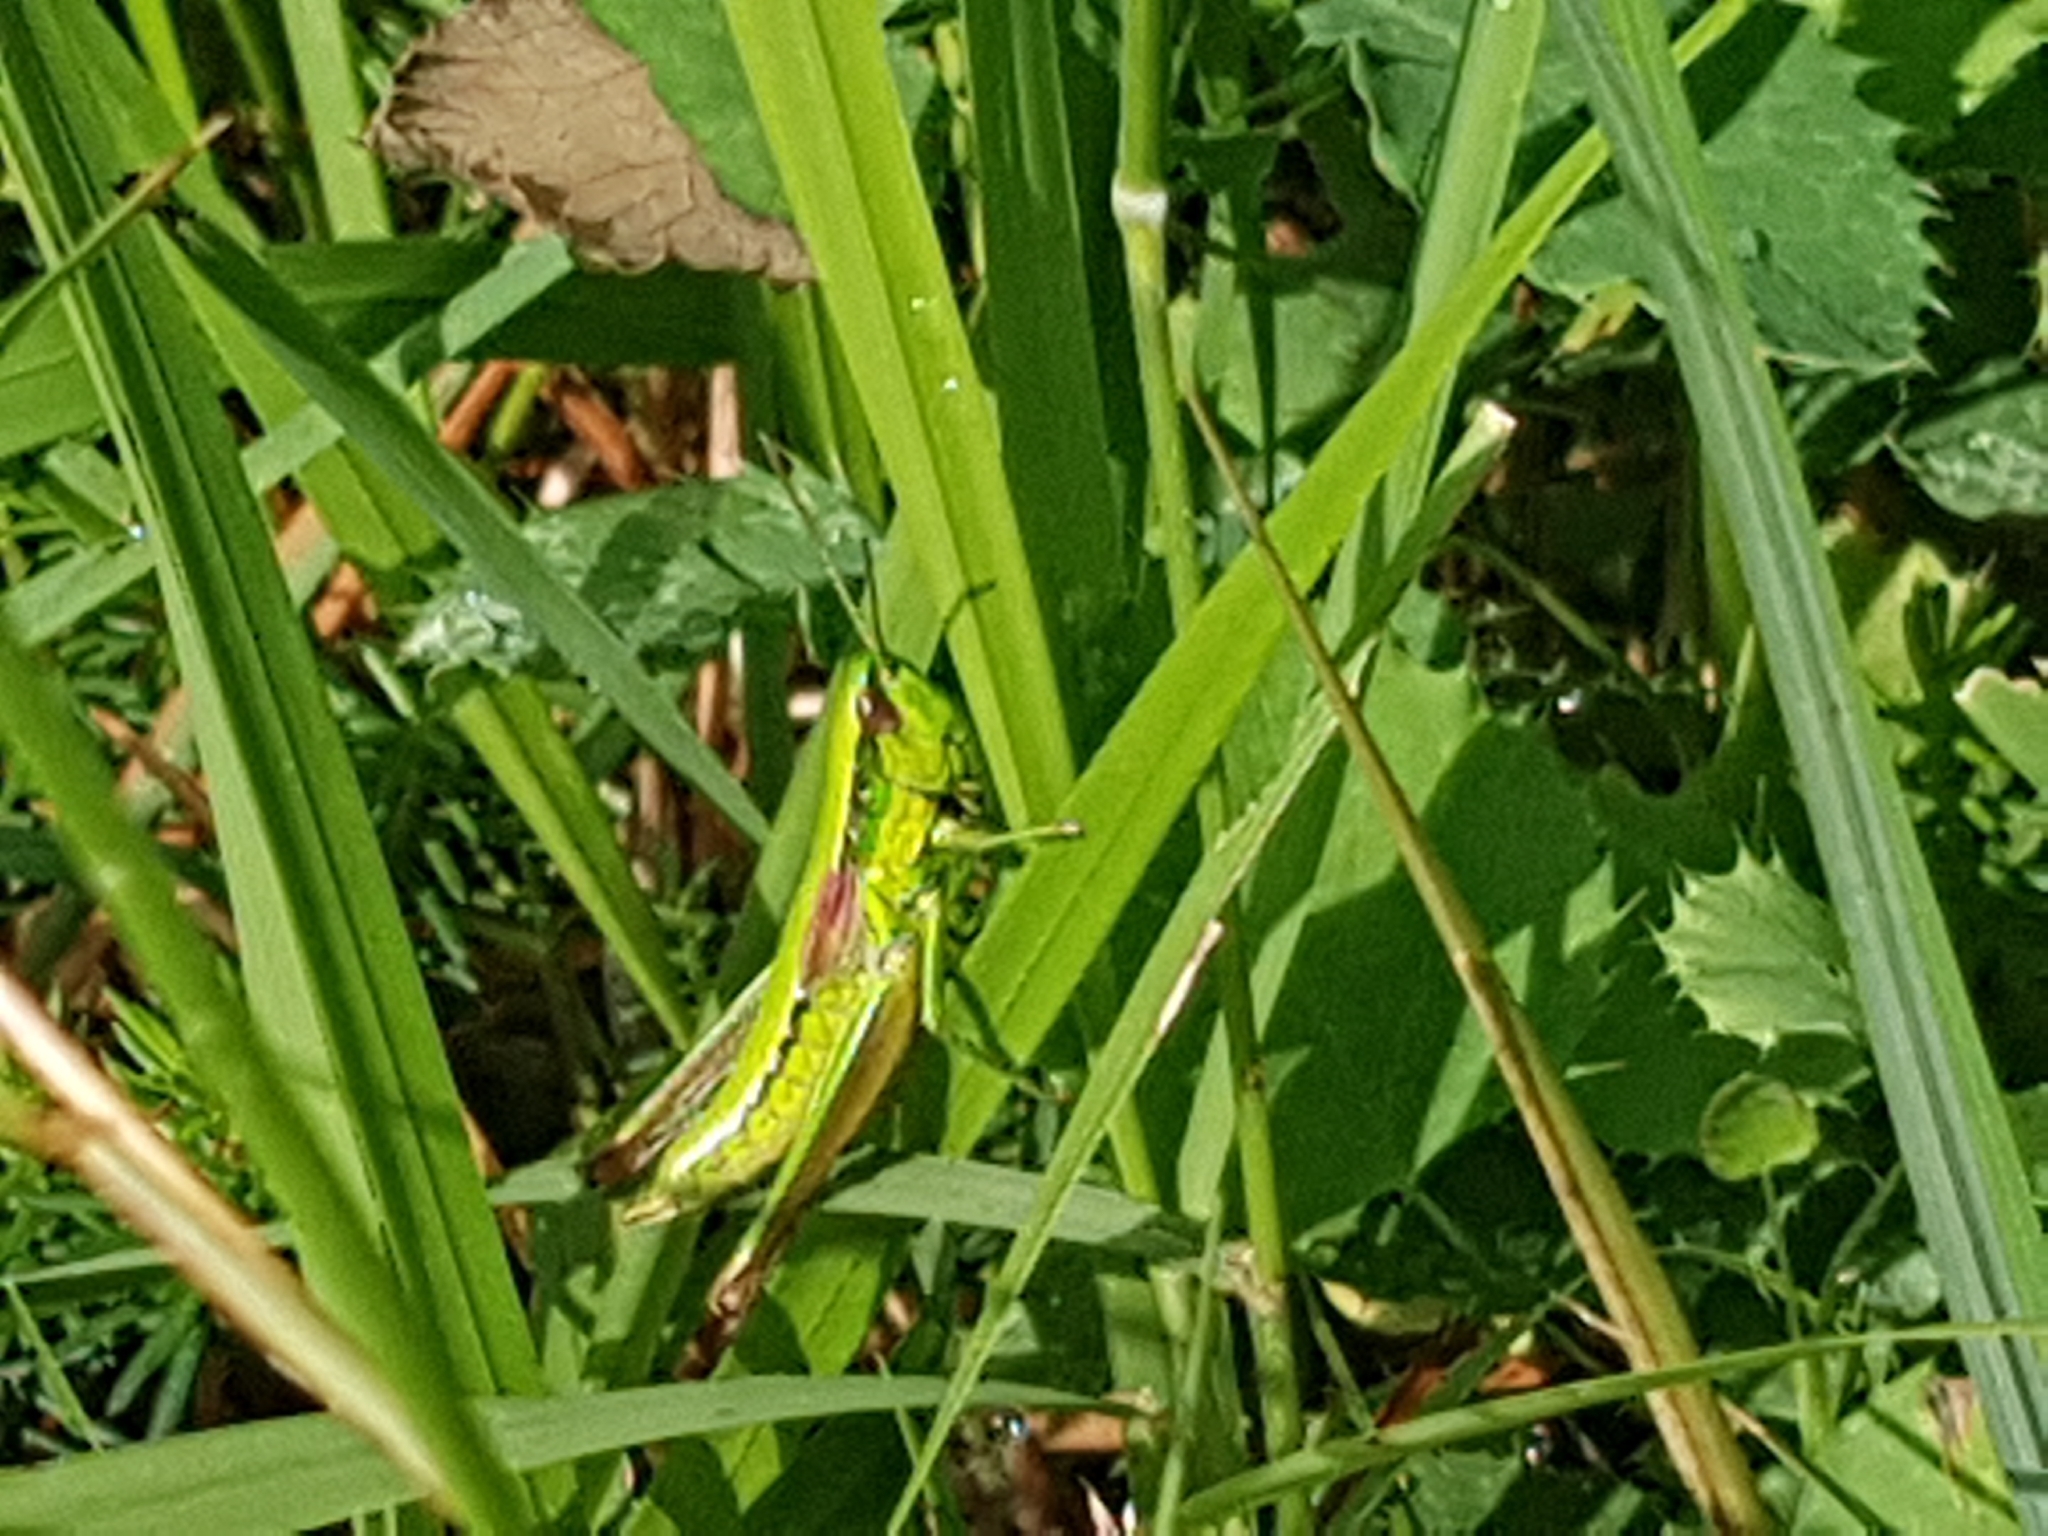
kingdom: Animalia
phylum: Arthropoda
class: Insecta
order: Orthoptera
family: Acrididae
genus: Euthystira
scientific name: Euthystira brachyptera
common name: Small gold grasshopper
